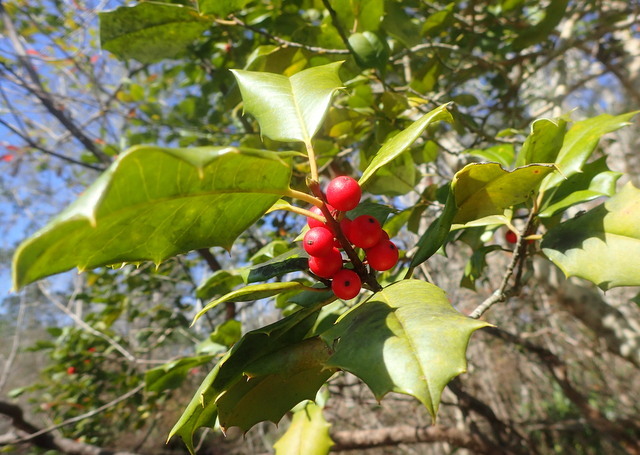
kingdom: Plantae
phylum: Tracheophyta
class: Magnoliopsida
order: Aquifoliales
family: Aquifoliaceae
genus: Ilex
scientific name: Ilex opaca
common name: American holly
